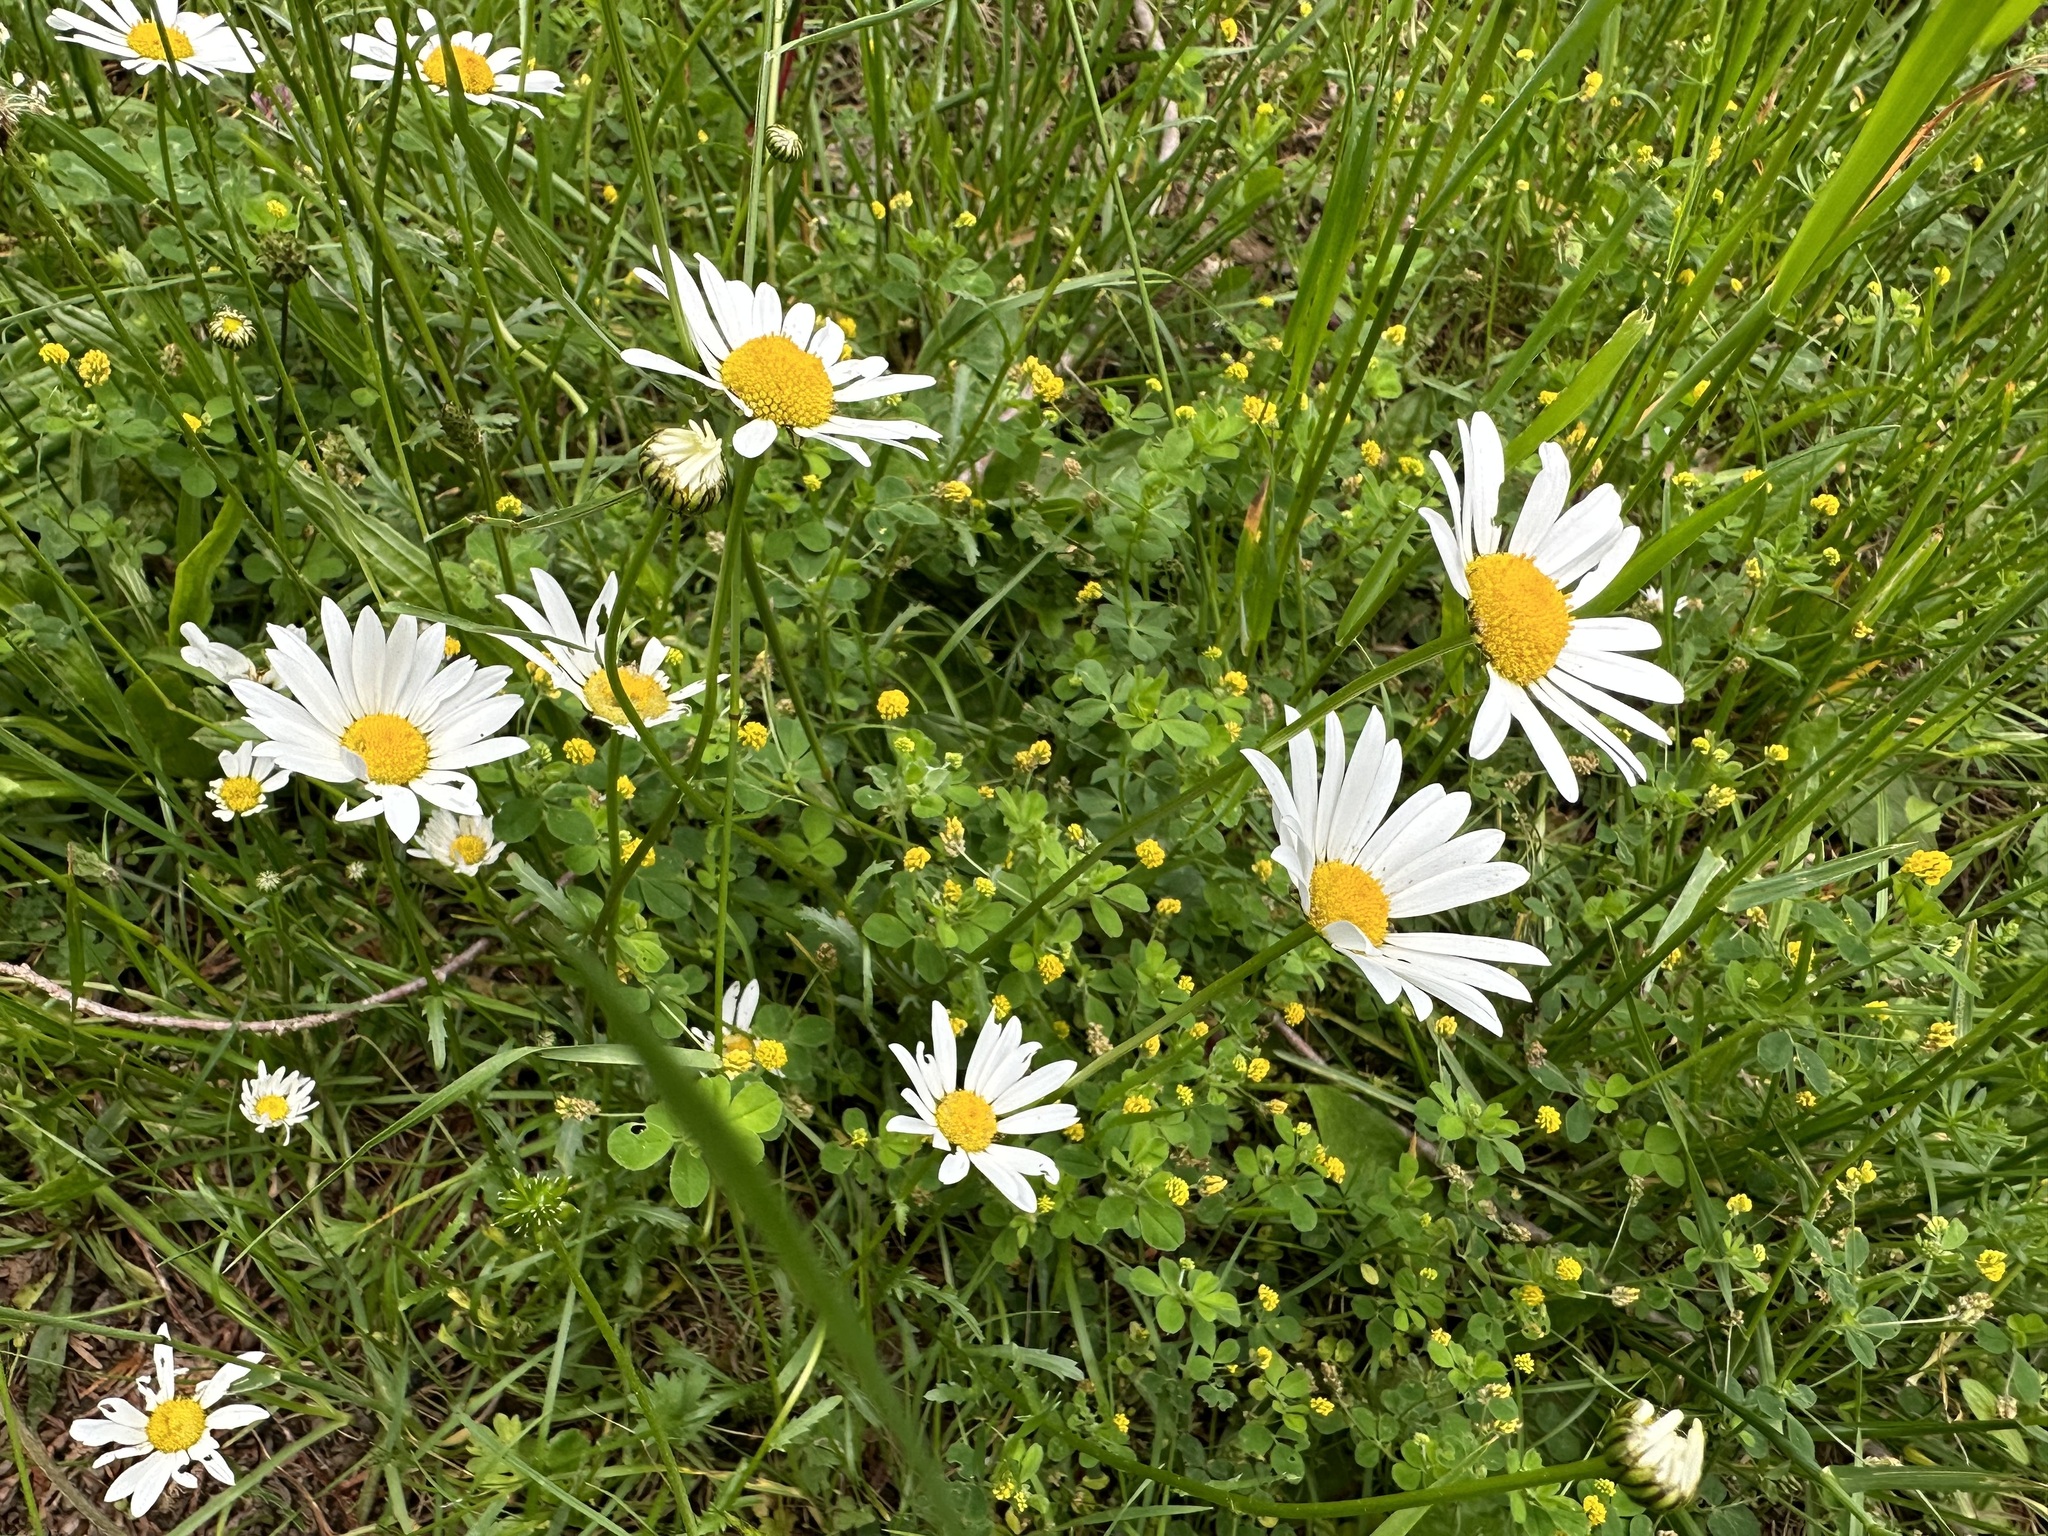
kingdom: Plantae
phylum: Tracheophyta
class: Magnoliopsida
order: Asterales
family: Asteraceae
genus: Leucanthemum
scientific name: Leucanthemum vulgare
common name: Oxeye daisy
